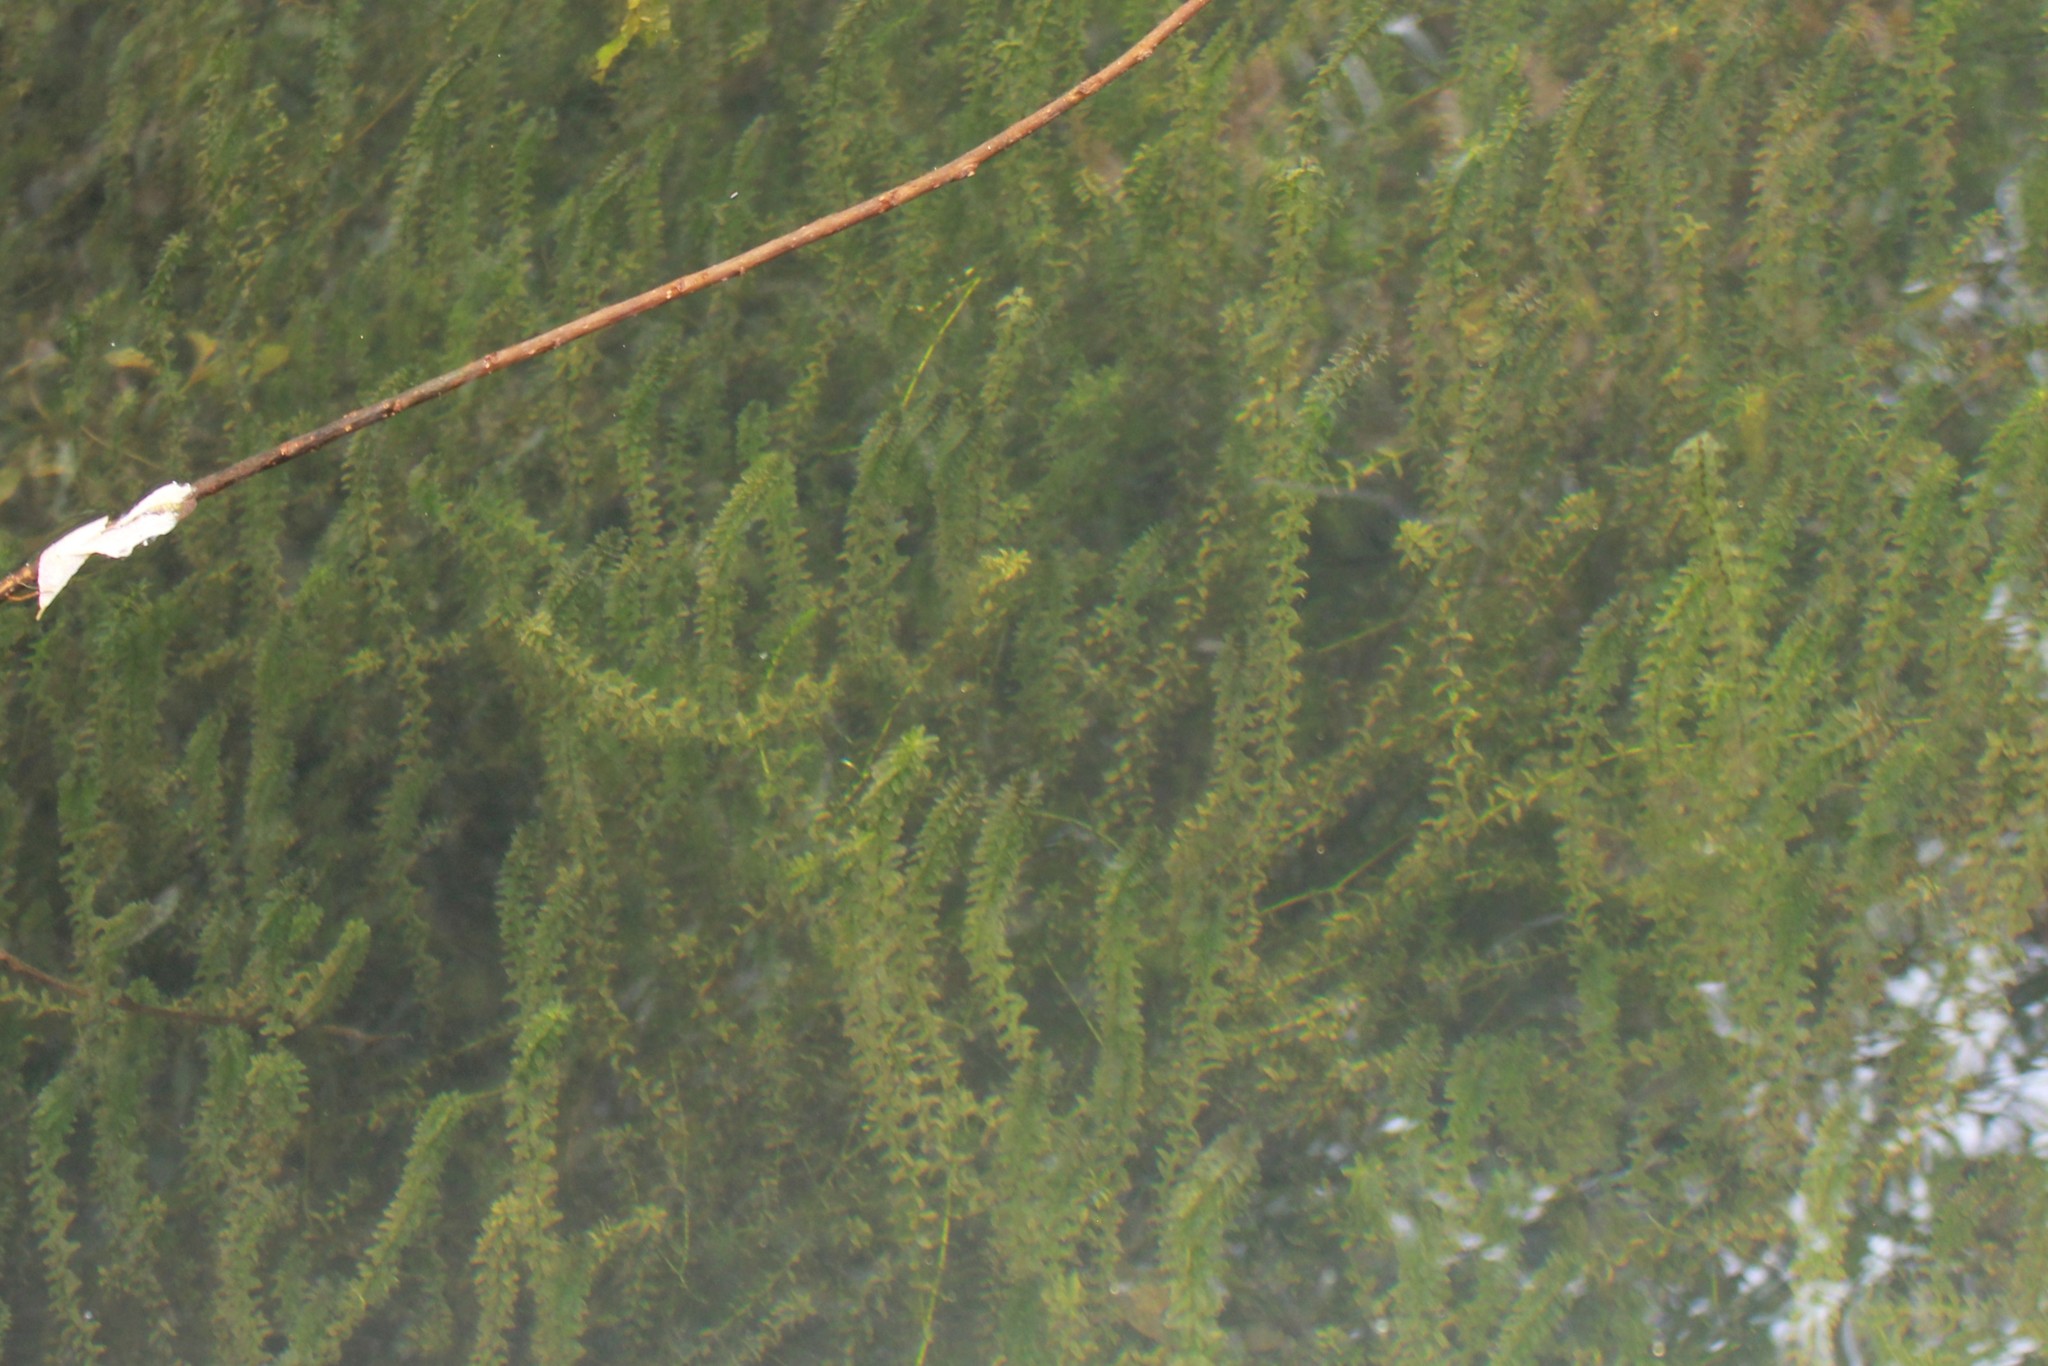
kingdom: Plantae
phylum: Tracheophyta
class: Liliopsida
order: Alismatales
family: Hydrocharitaceae
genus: Elodea
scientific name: Elodea canadensis
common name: Canadian waterweed
